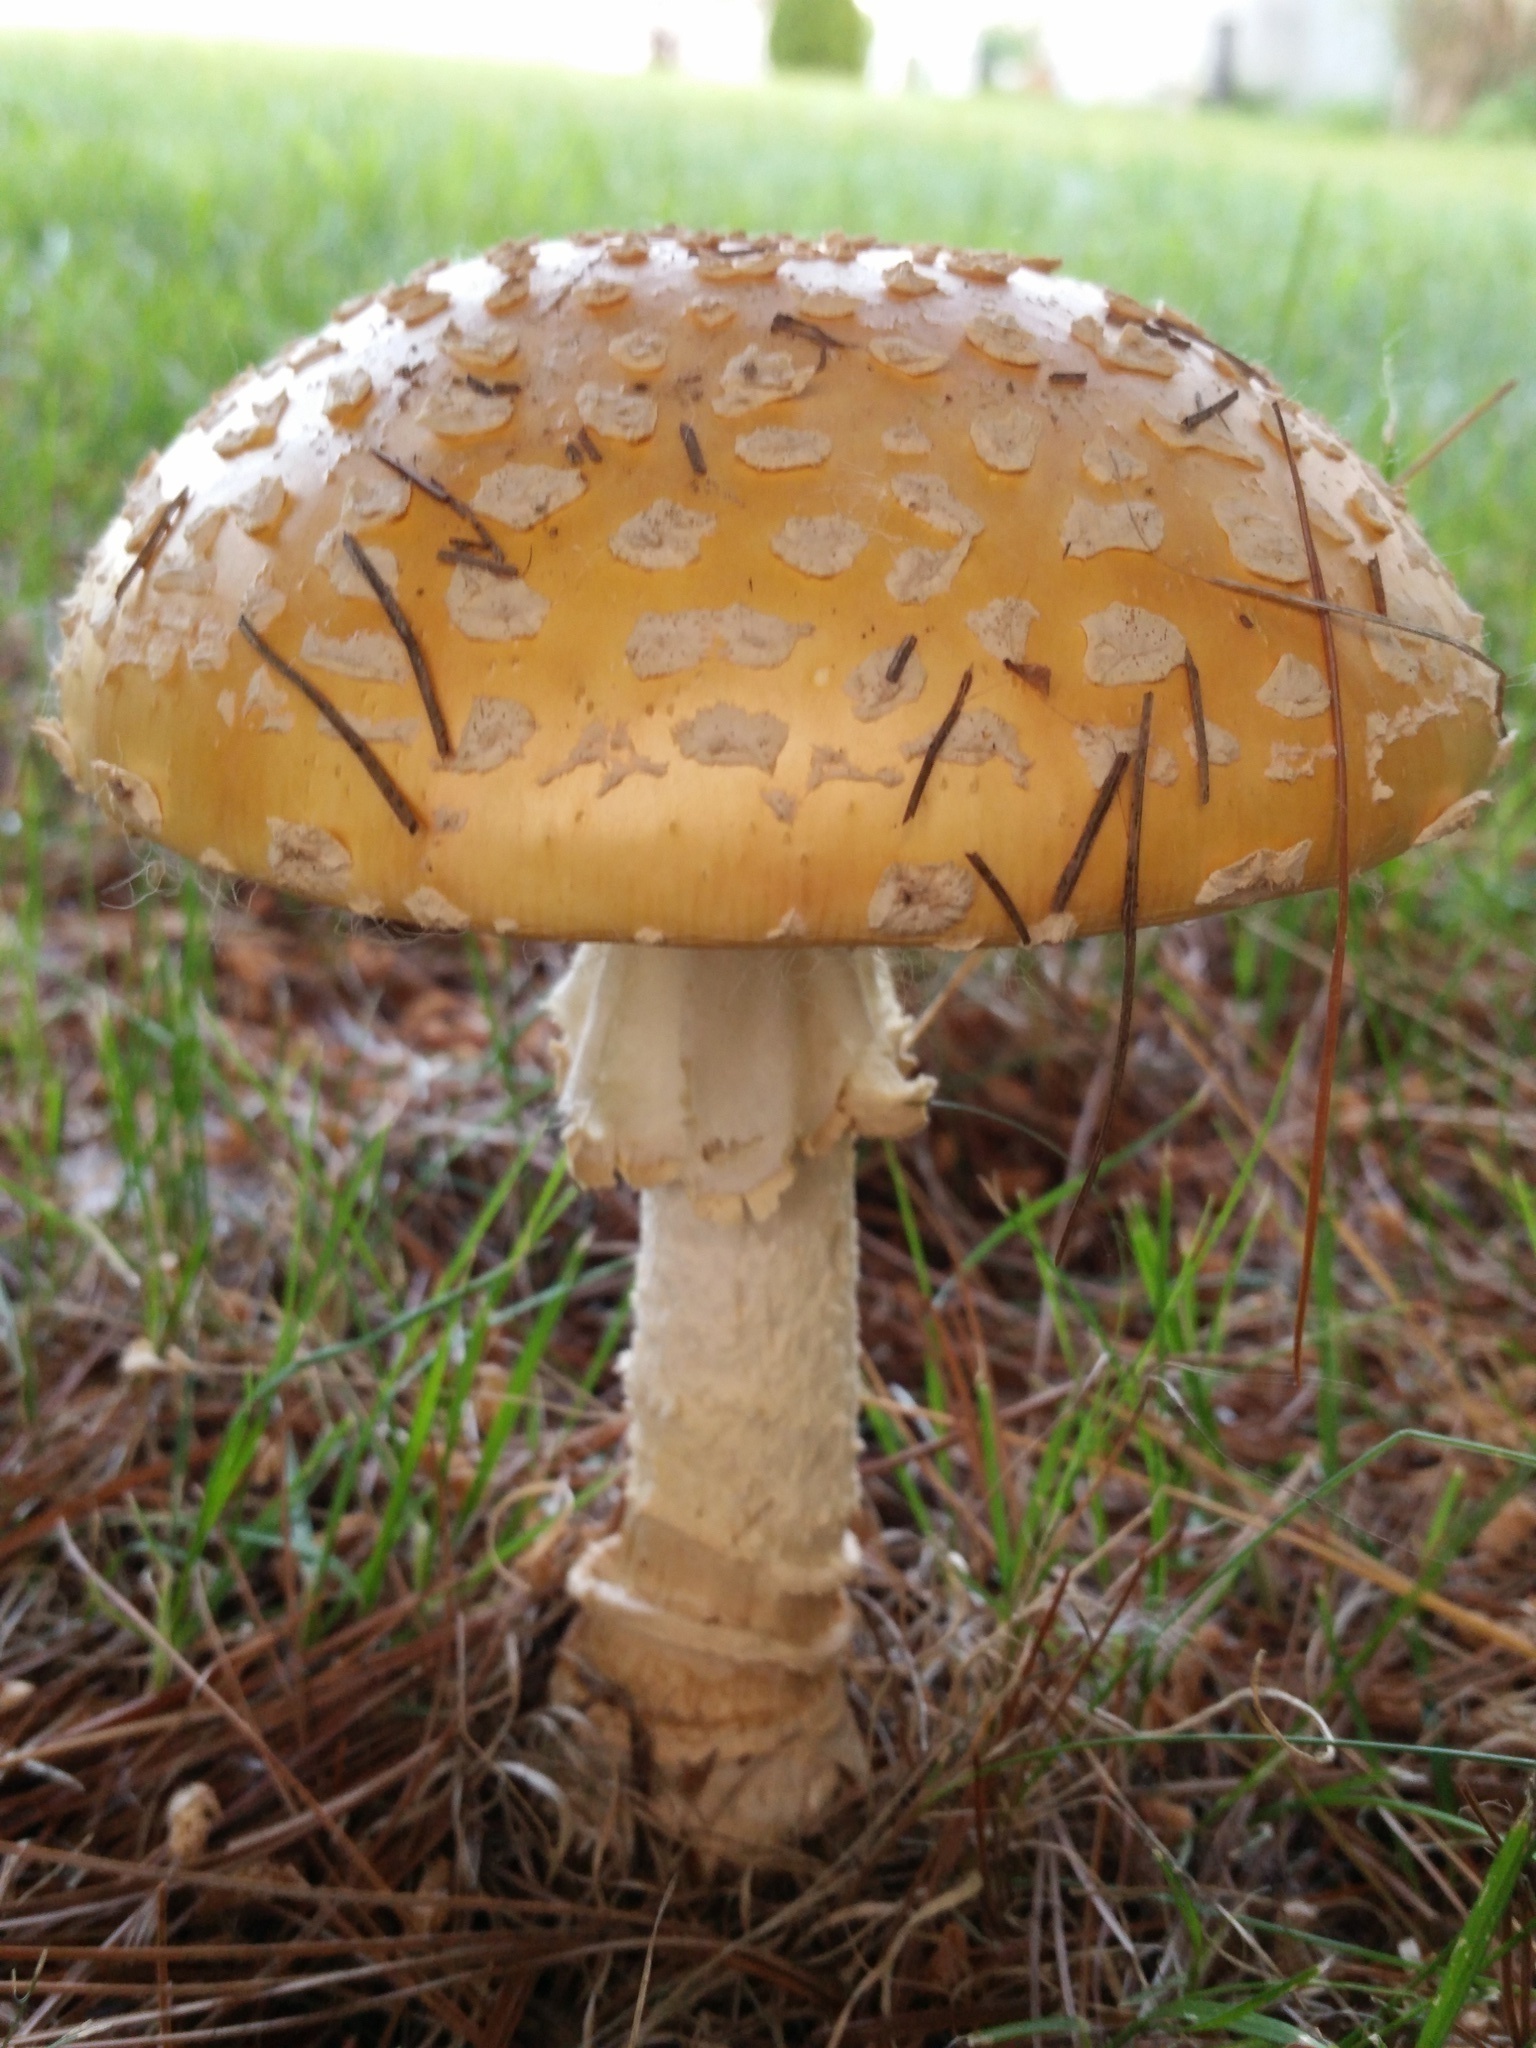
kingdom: Fungi
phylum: Basidiomycota
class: Agaricomycetes
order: Agaricales
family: Amanitaceae
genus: Amanita
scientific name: Amanita muscaria
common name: Fly agaric
